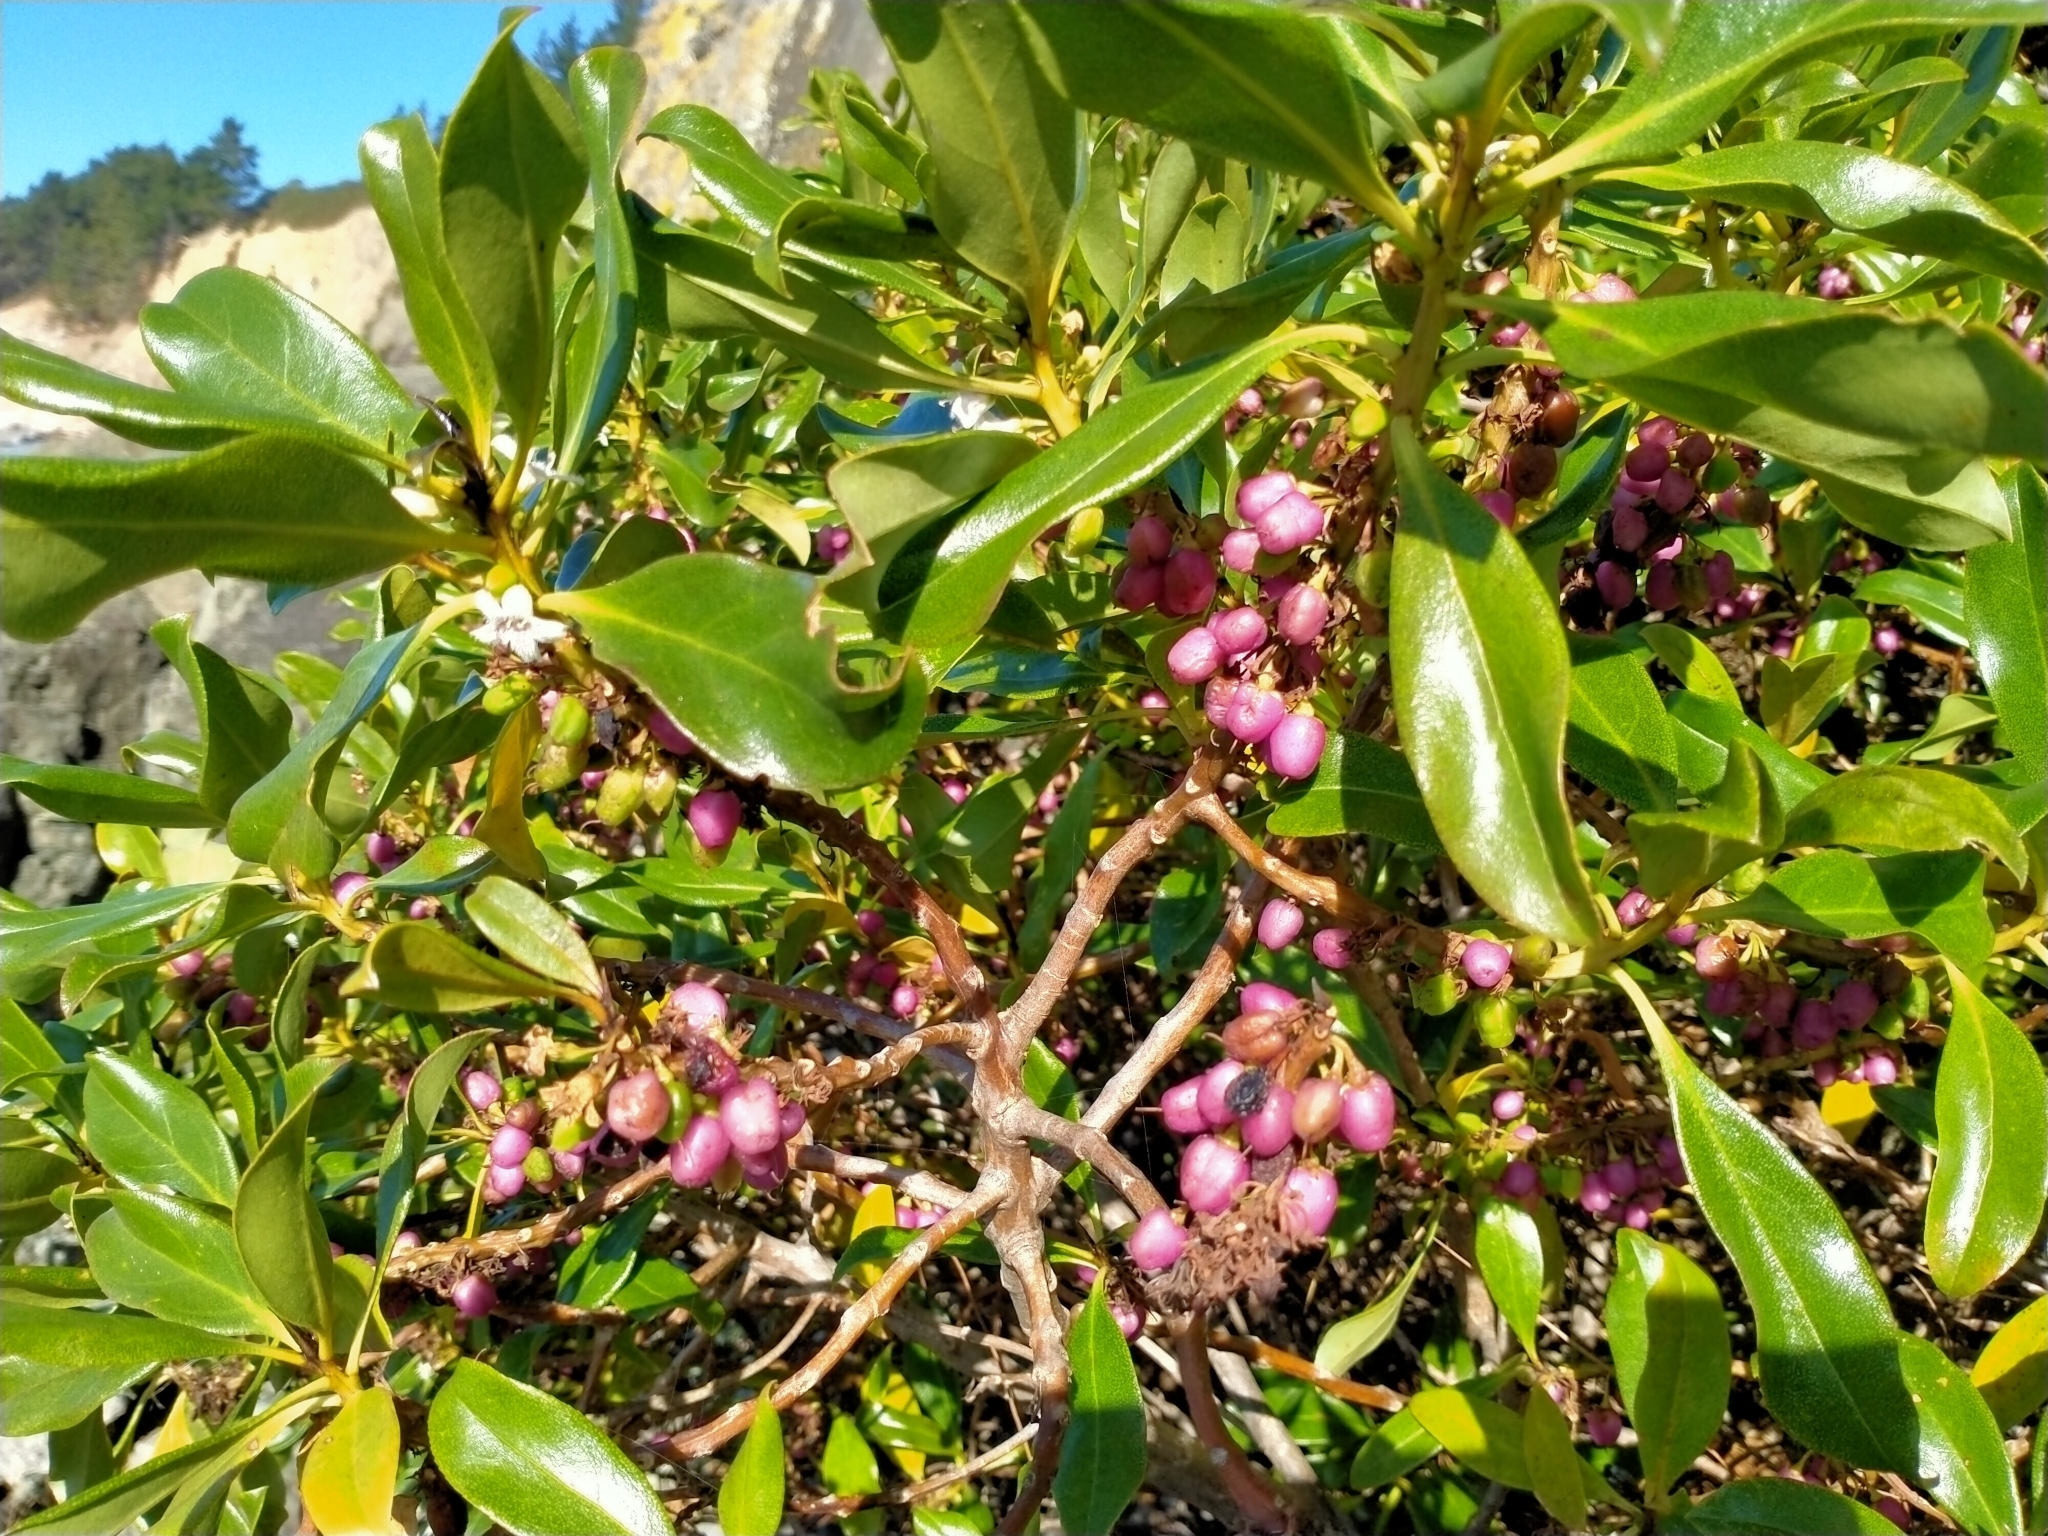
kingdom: Plantae
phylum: Tracheophyta
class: Magnoliopsida
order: Lamiales
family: Scrophulariaceae
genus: Myoporum
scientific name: Myoporum laetum
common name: Ngaio tree
